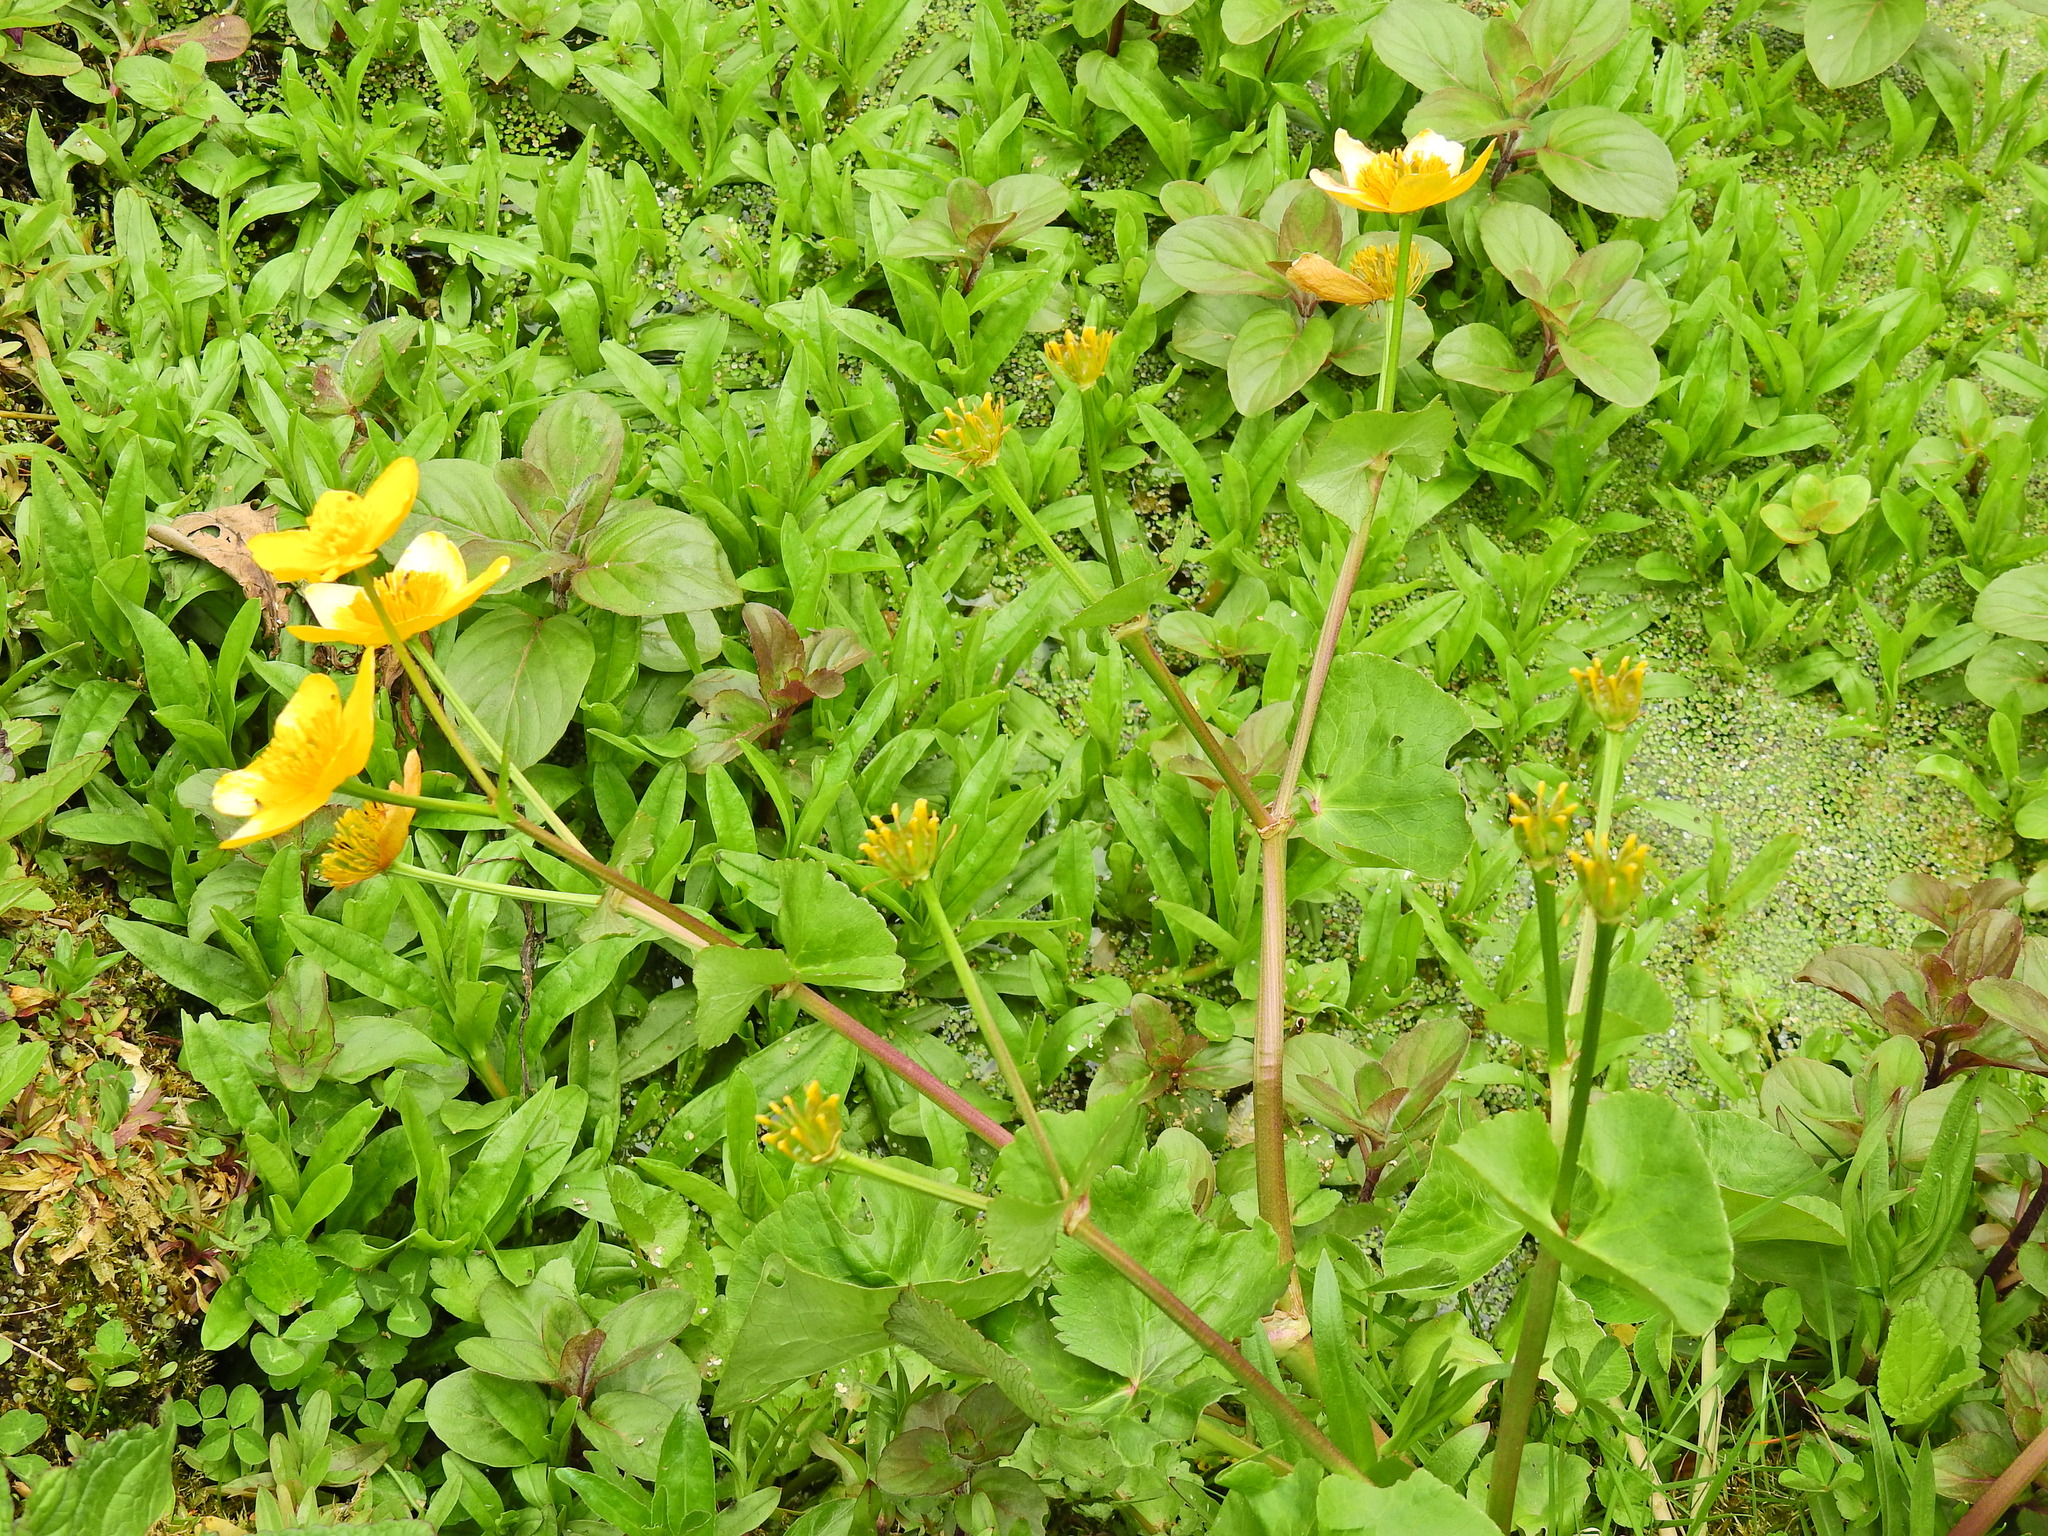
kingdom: Plantae
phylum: Tracheophyta
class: Magnoliopsida
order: Ranunculales
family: Ranunculaceae
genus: Caltha
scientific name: Caltha palustris
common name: Marsh marigold
